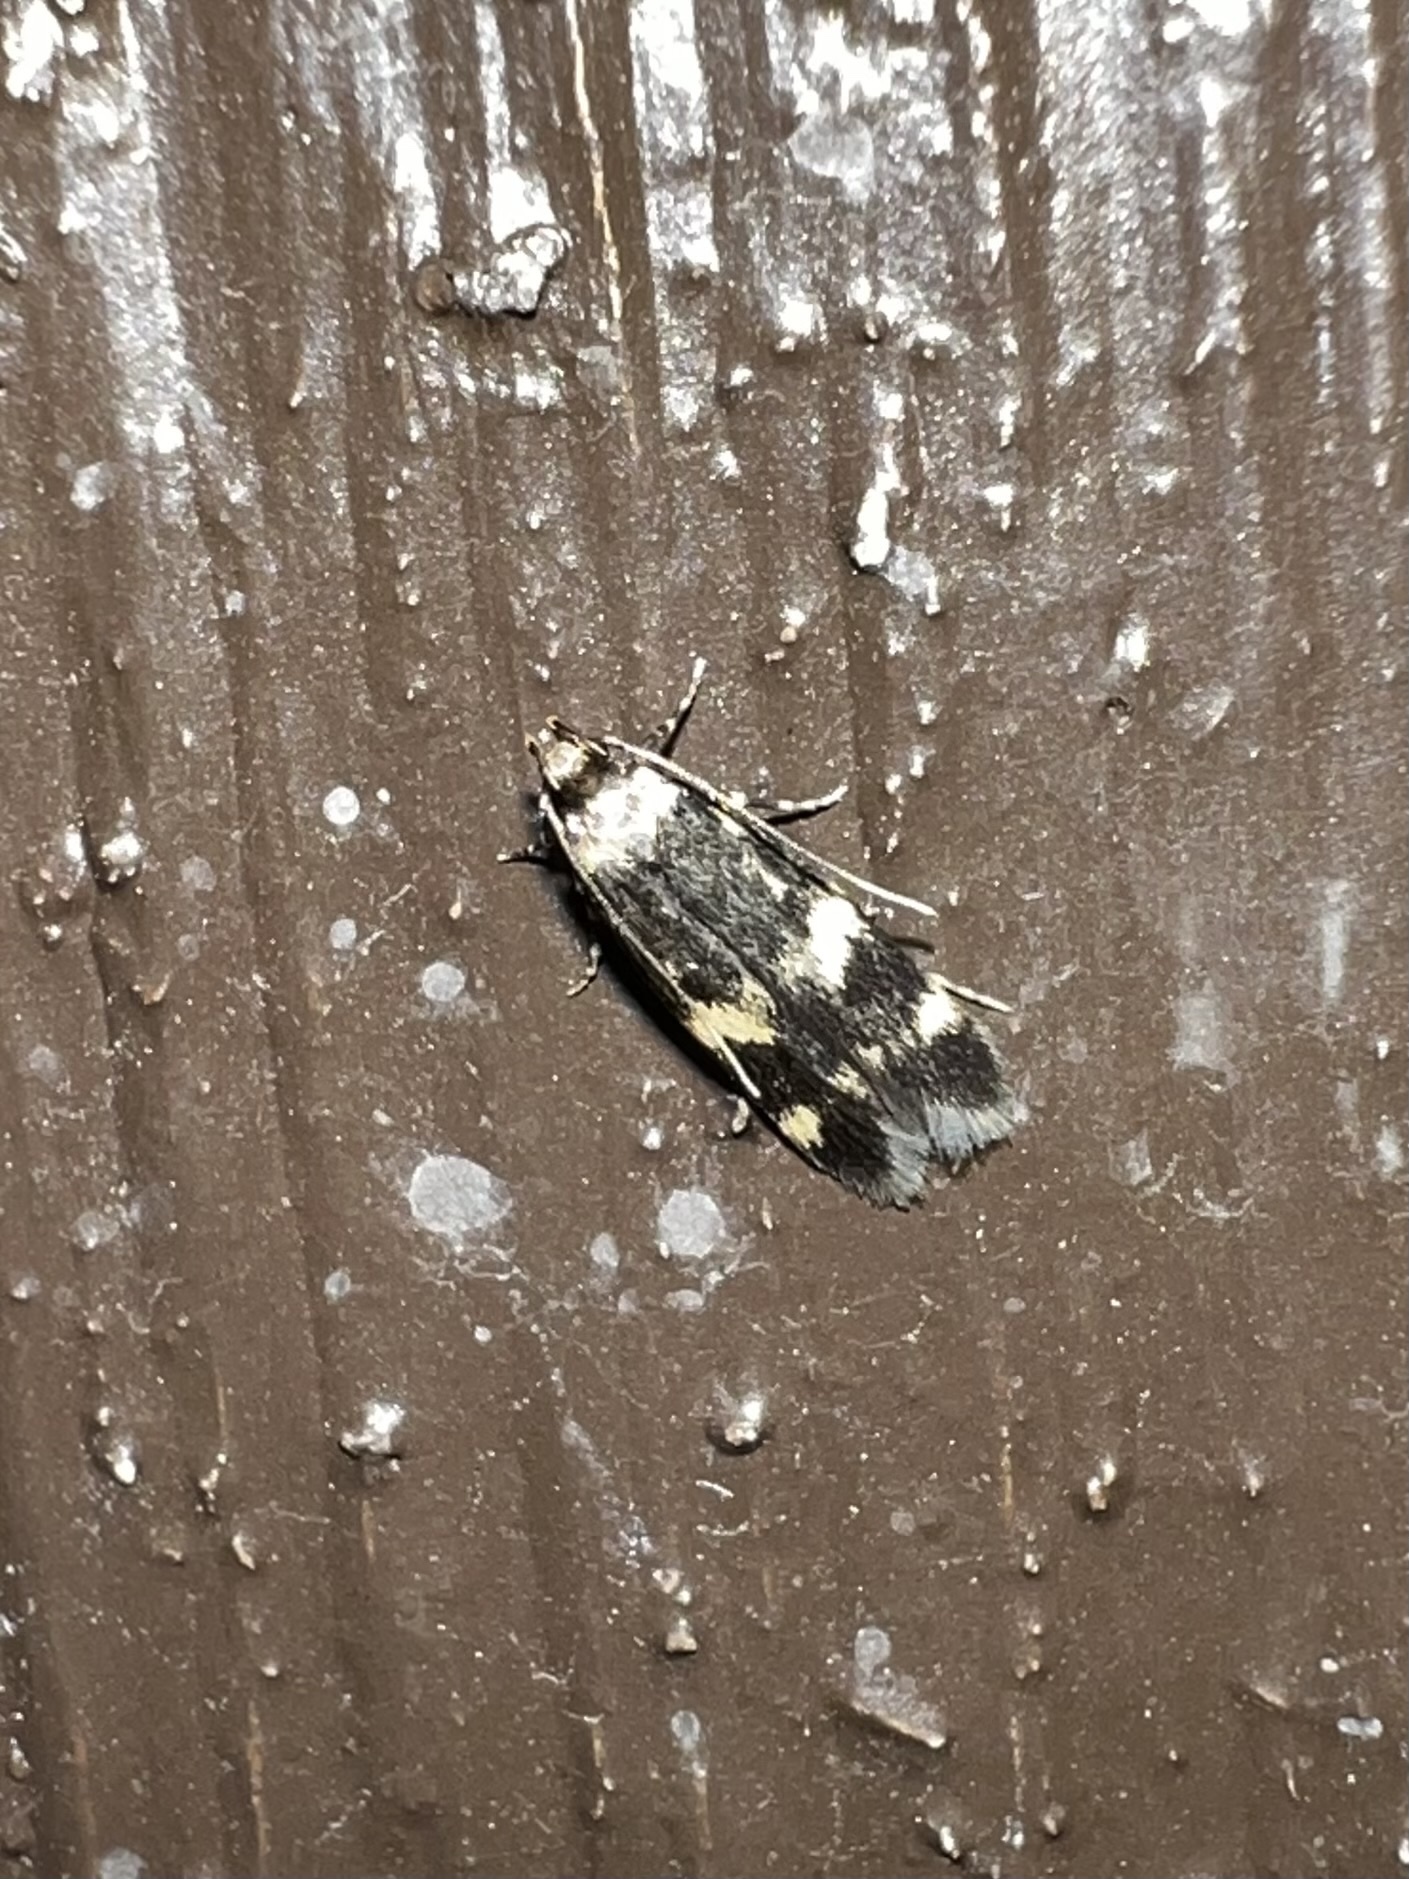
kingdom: Animalia
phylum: Arthropoda
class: Insecta
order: Lepidoptera
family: Autostichidae
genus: Oegoconia
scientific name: Oegoconia quadripuncta
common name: Four-spotted obscure
